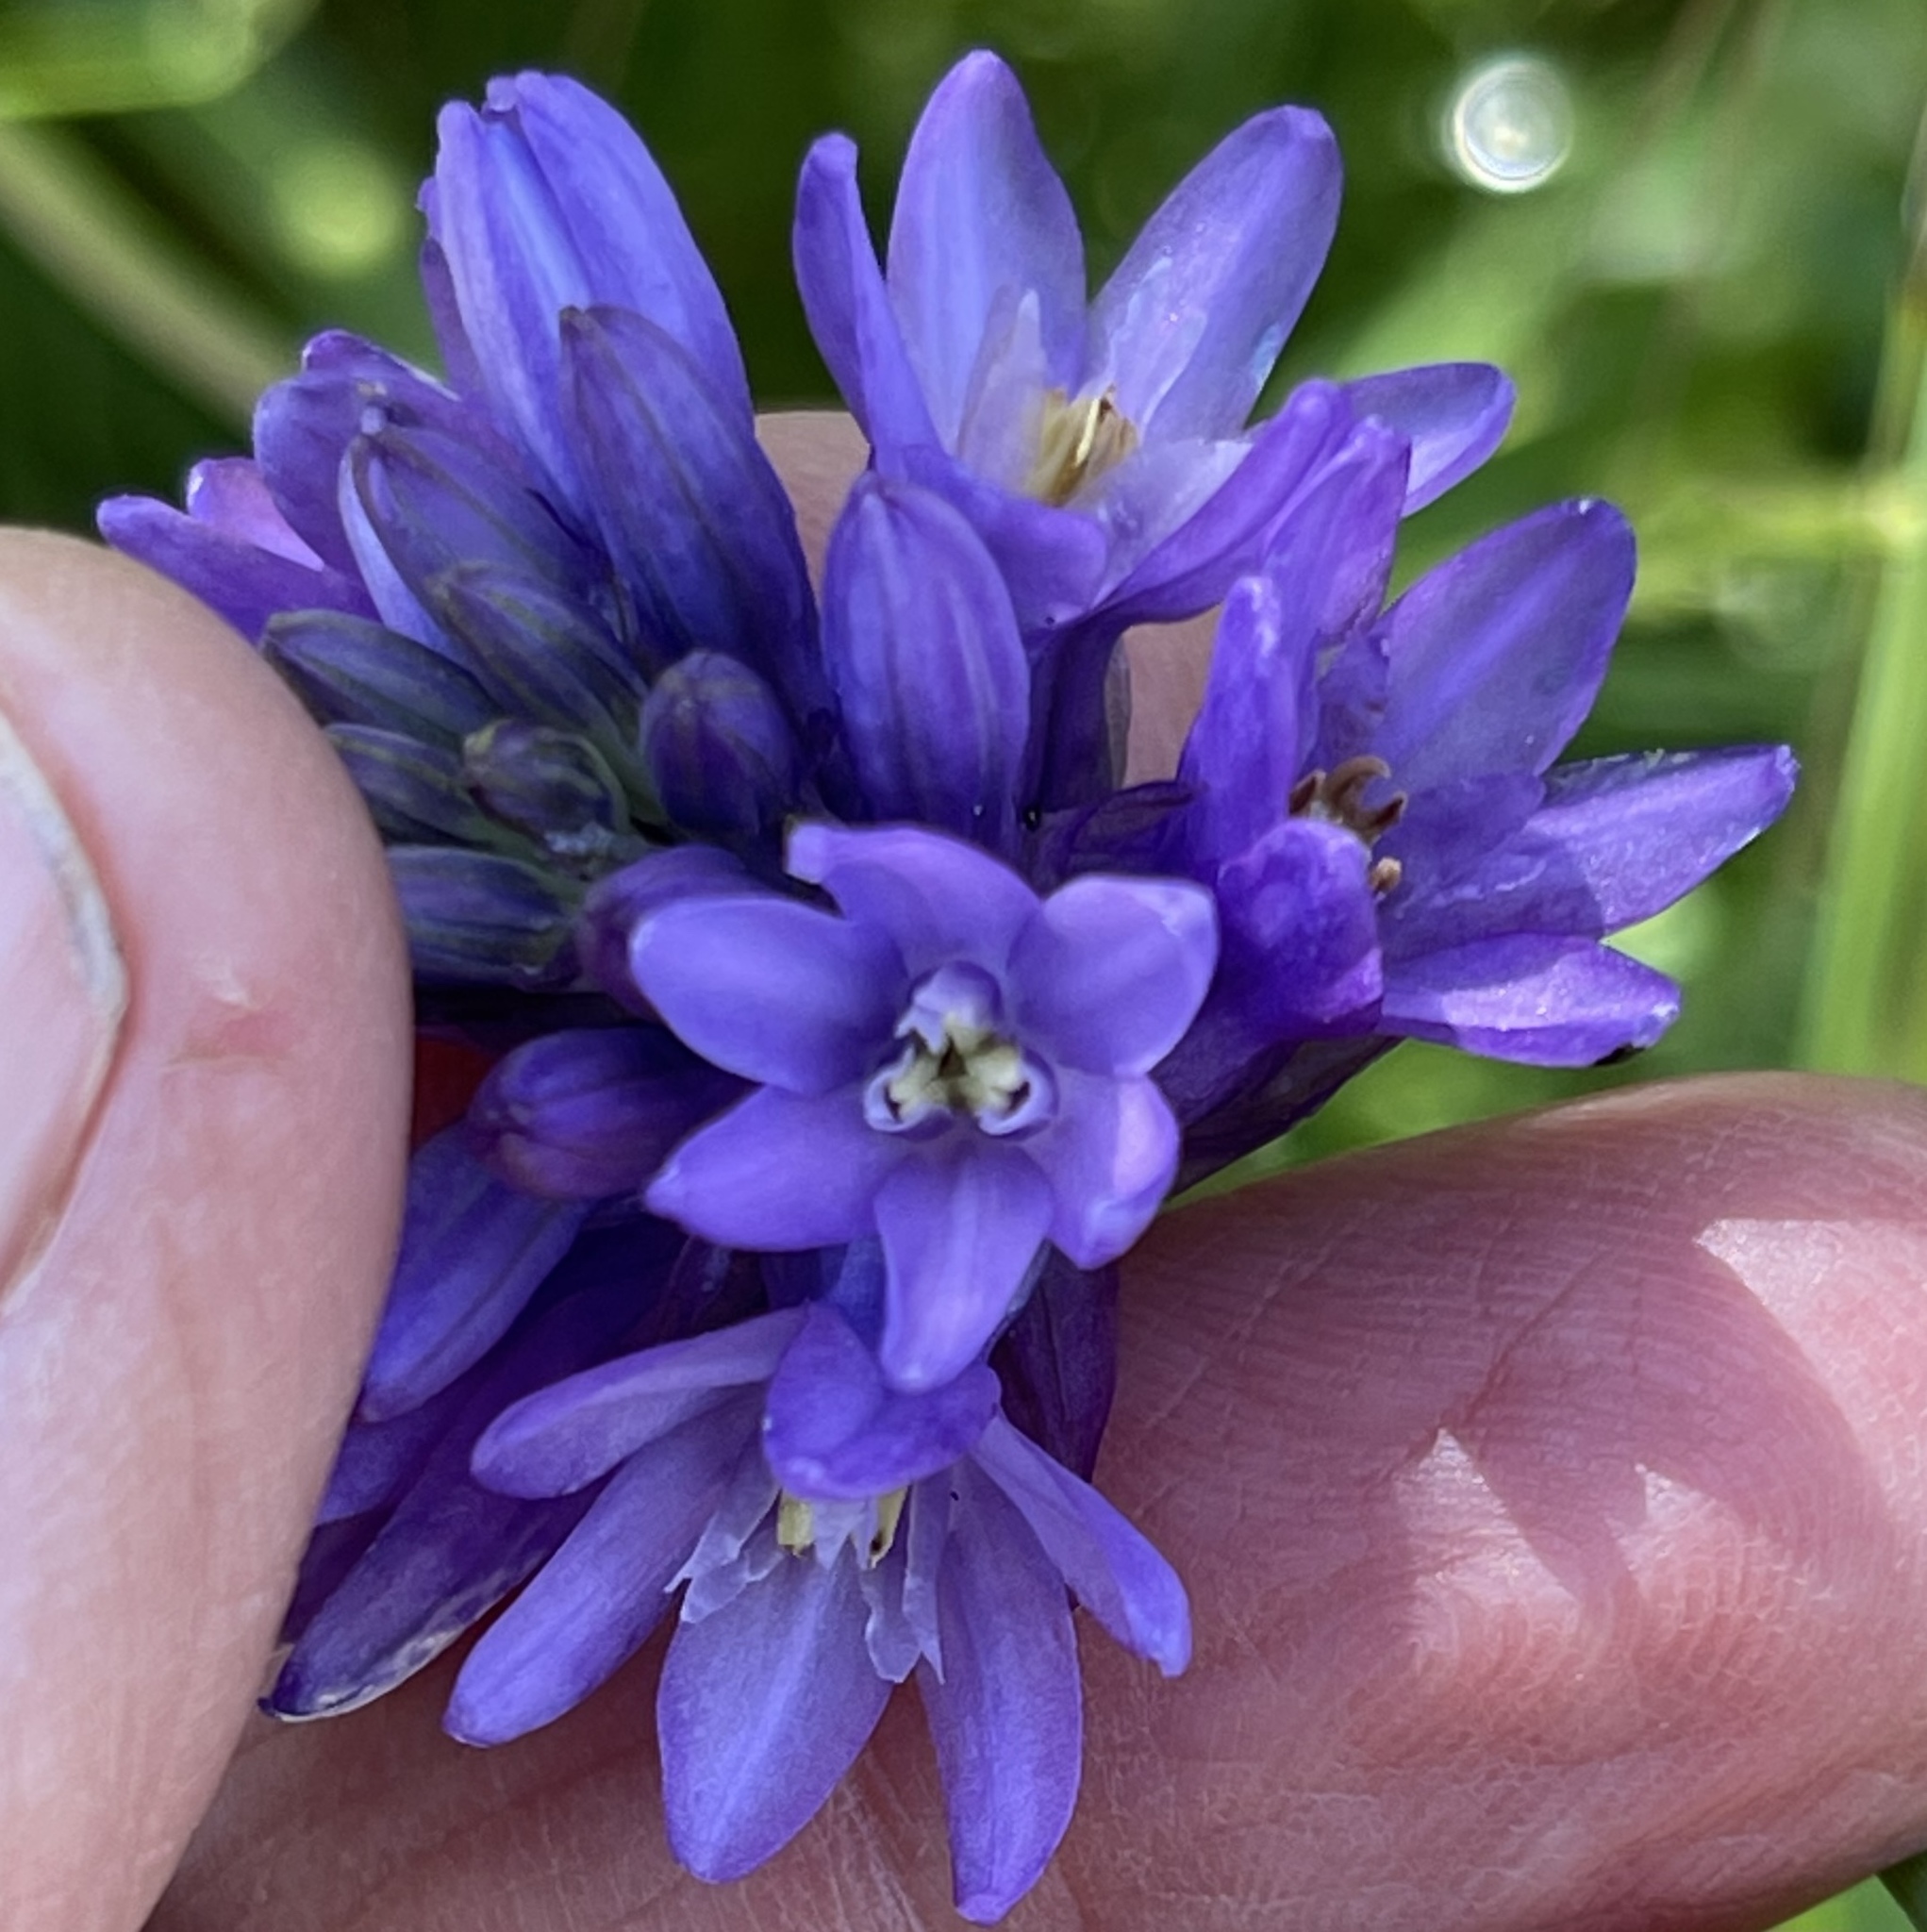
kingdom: Plantae
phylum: Tracheophyta
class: Liliopsida
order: Asparagales
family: Asparagaceae
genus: Dichelostemma
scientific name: Dichelostemma congestum
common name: Fork-tooth ookow
